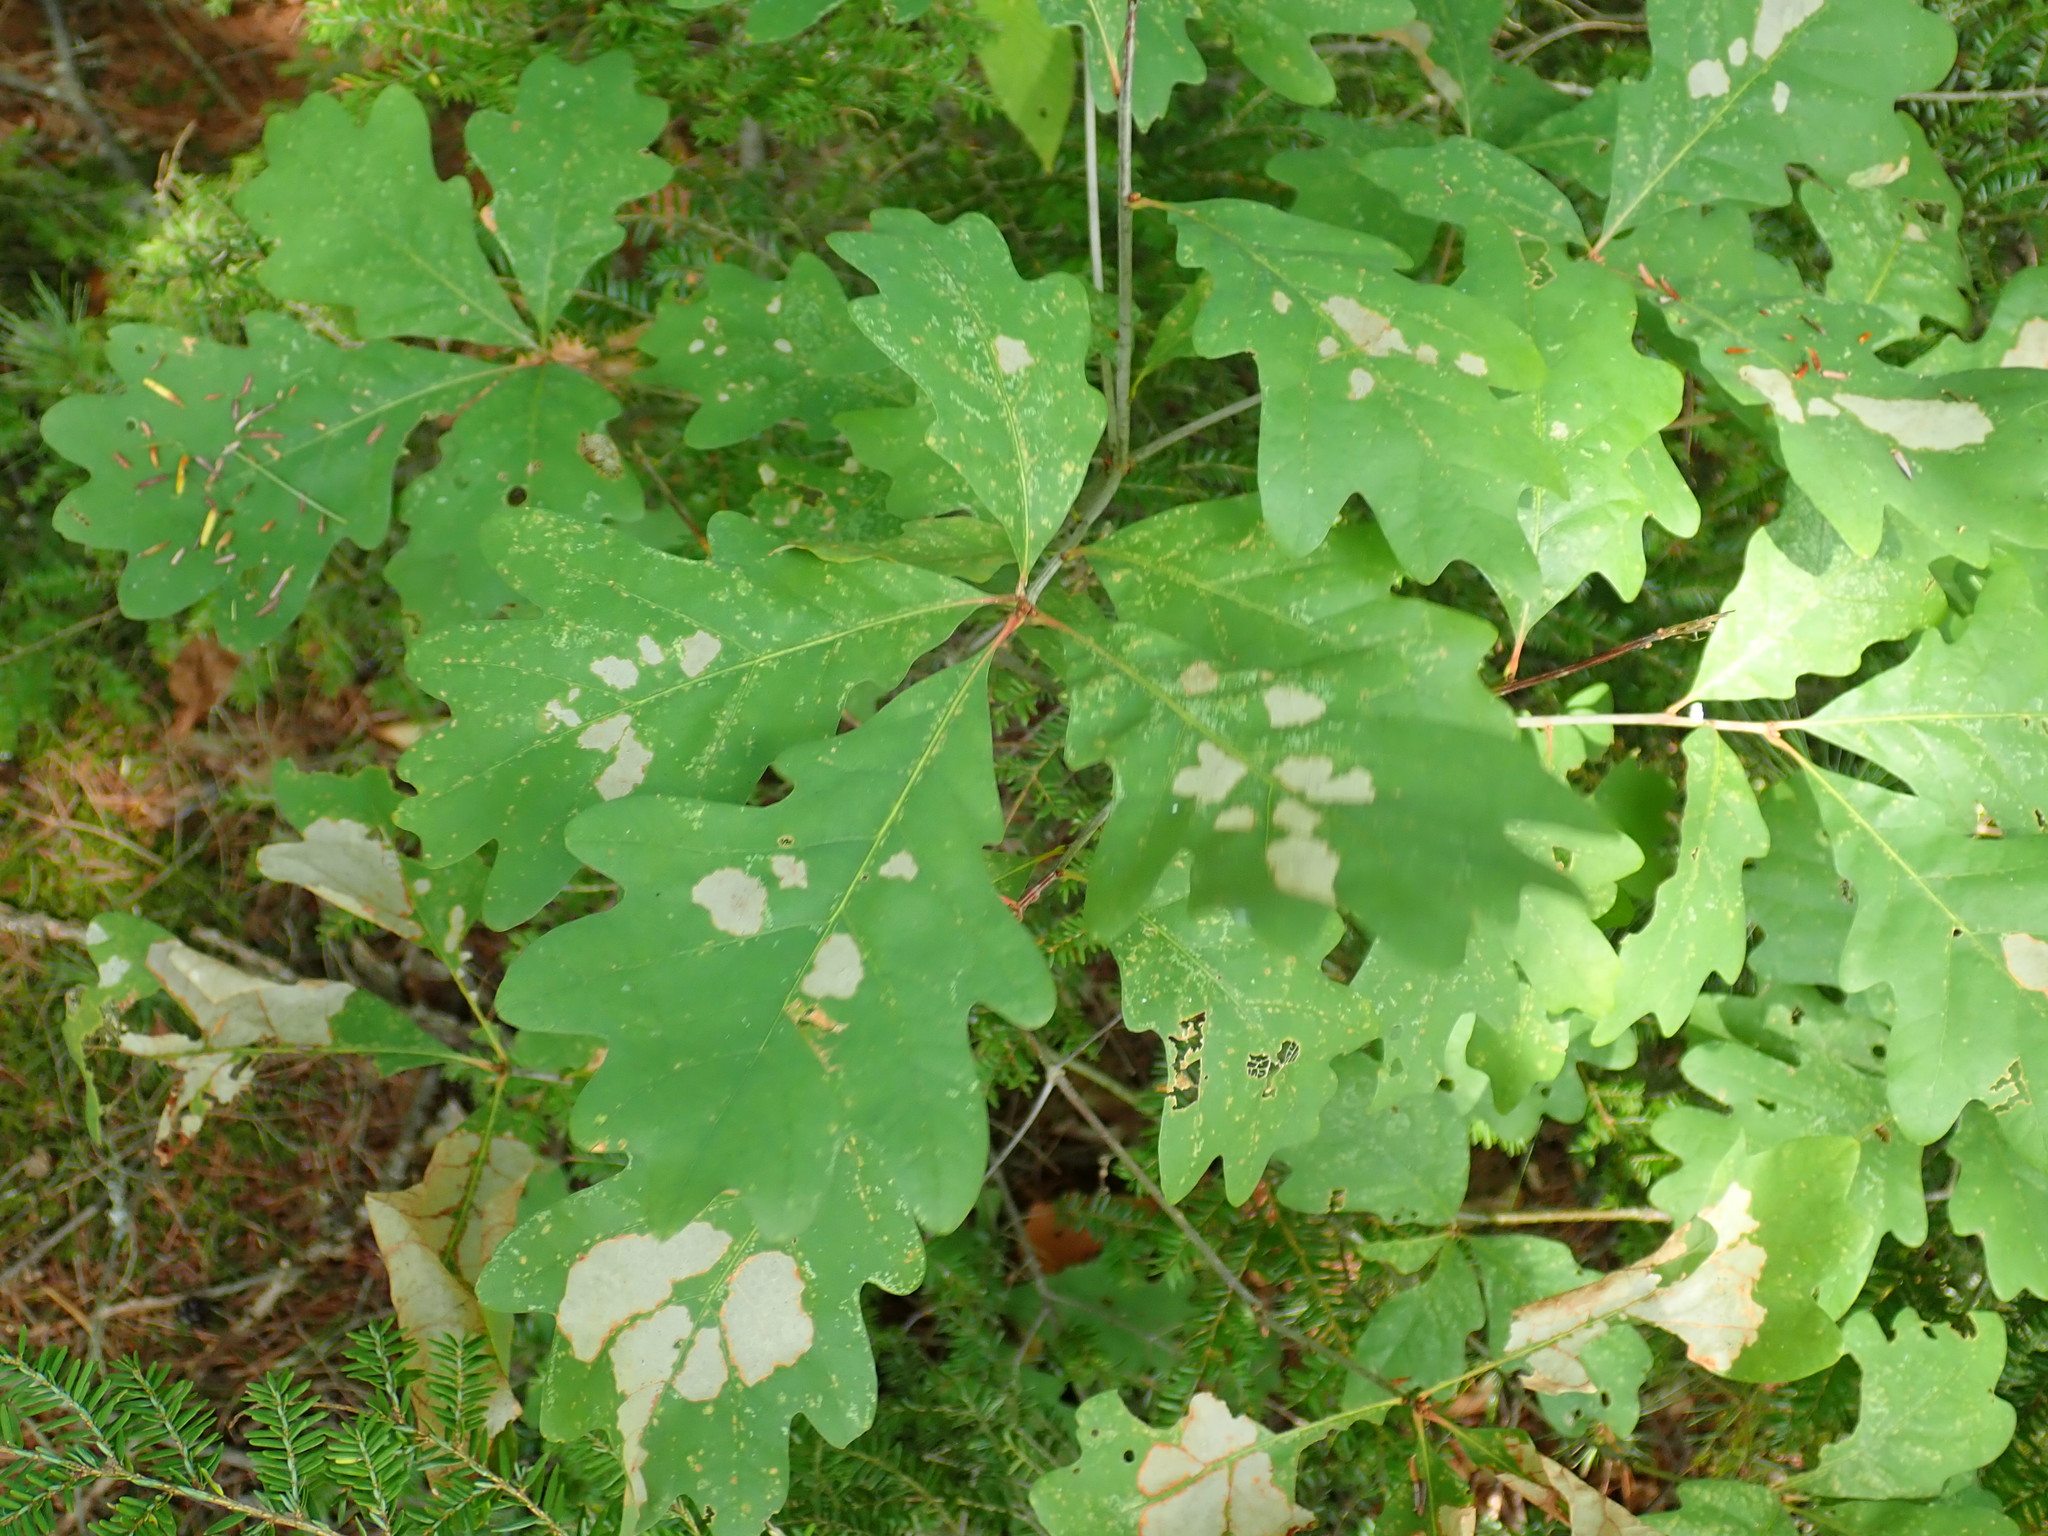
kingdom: Plantae
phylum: Tracheophyta
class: Magnoliopsida
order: Fagales
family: Fagaceae
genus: Quercus
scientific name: Quercus alba
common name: White oak
